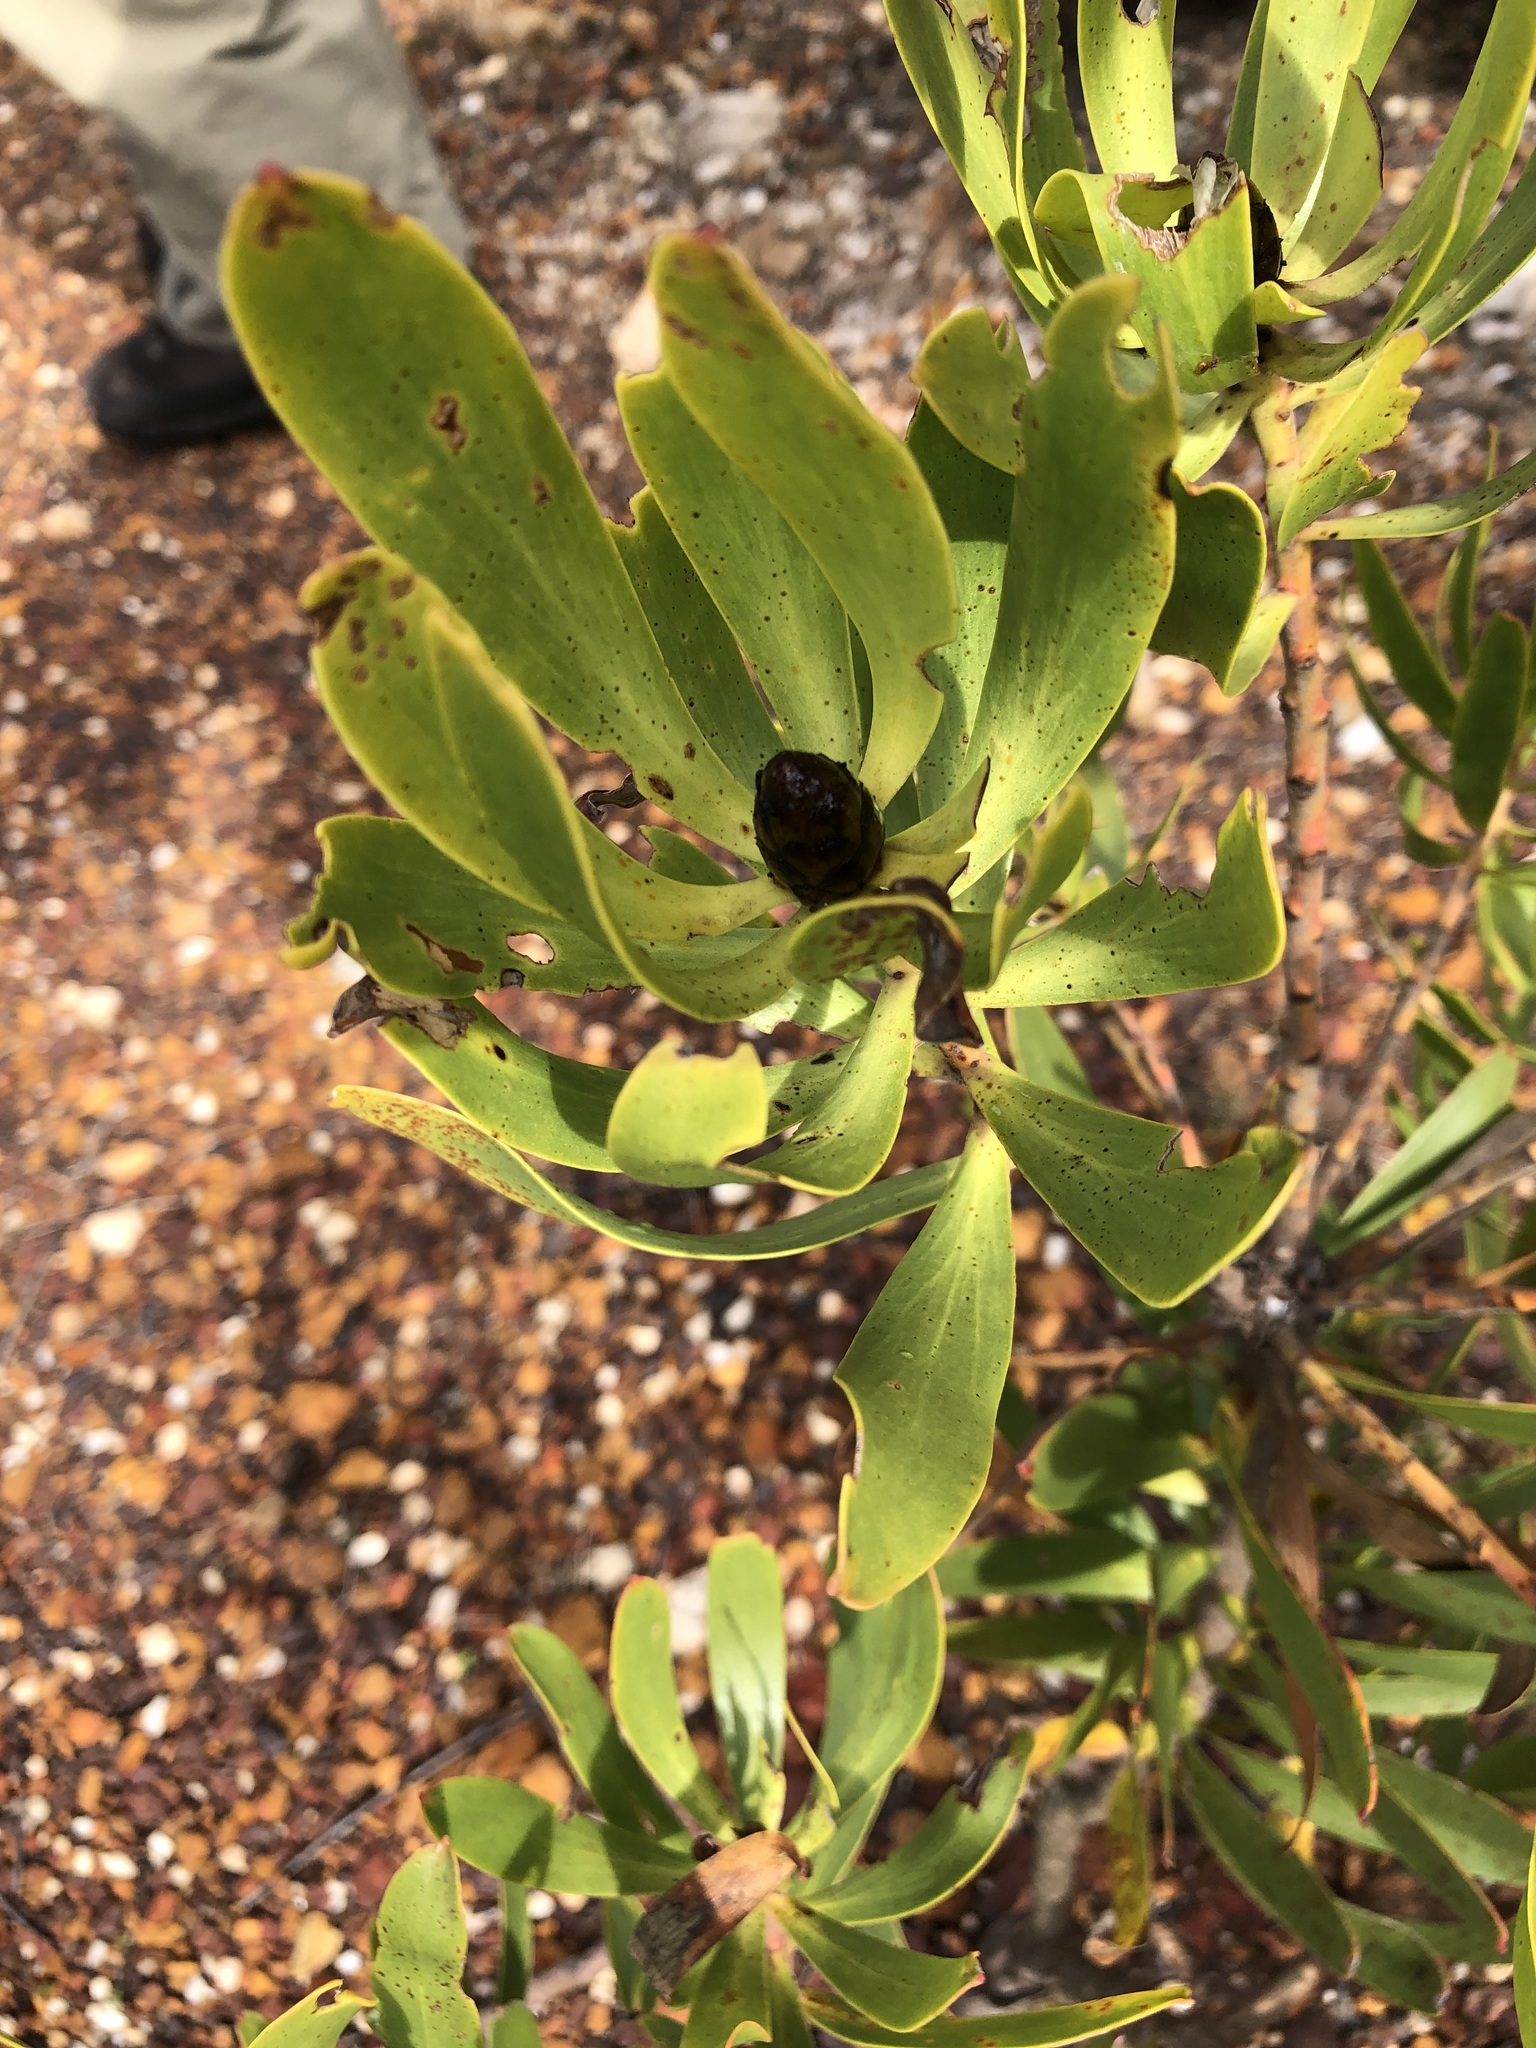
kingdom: Plantae
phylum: Tracheophyta
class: Magnoliopsida
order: Proteales
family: Proteaceae
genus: Leucadendron
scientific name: Leucadendron microcephalum
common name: Oilbract conebush
